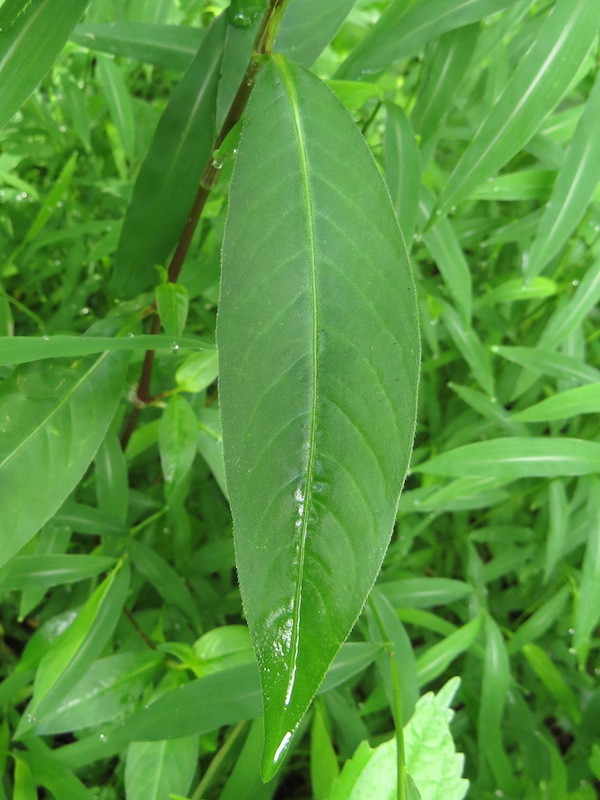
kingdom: Plantae
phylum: Tracheophyta
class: Magnoliopsida
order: Caryophyllales
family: Polygonaceae
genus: Persicaria
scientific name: Persicaria longiseta
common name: Bristly lady's-thumb
